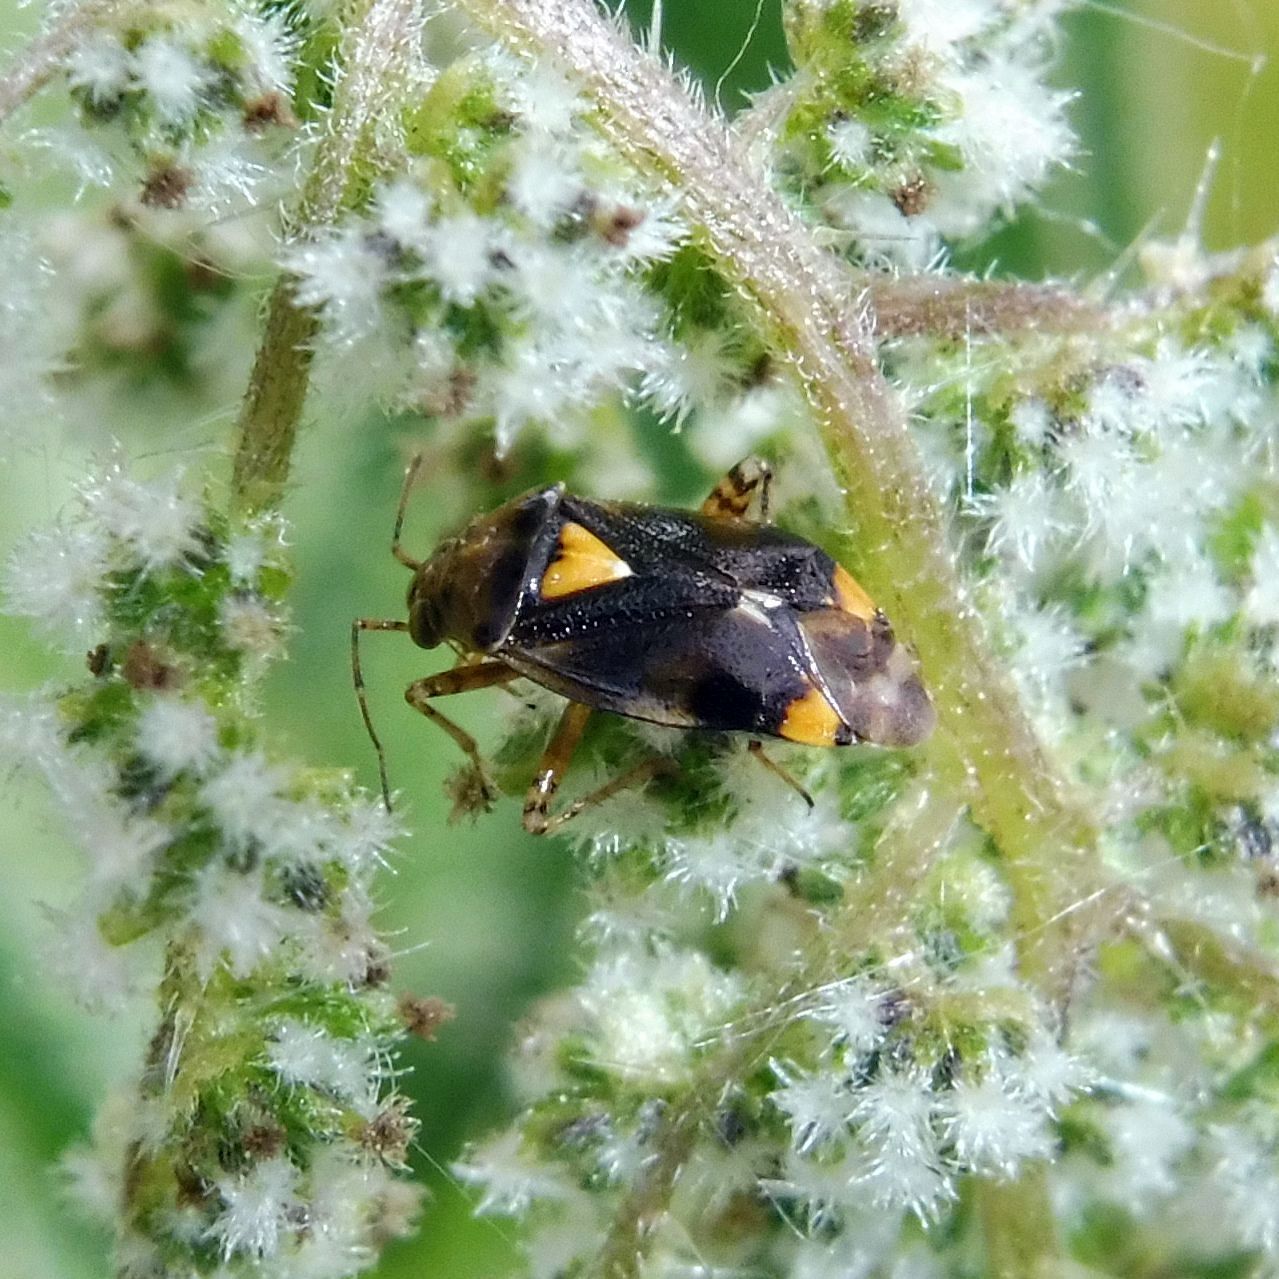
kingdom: Animalia
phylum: Arthropoda
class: Insecta
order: Hemiptera
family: Miridae
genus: Liocoris
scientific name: Liocoris tripustulatus
